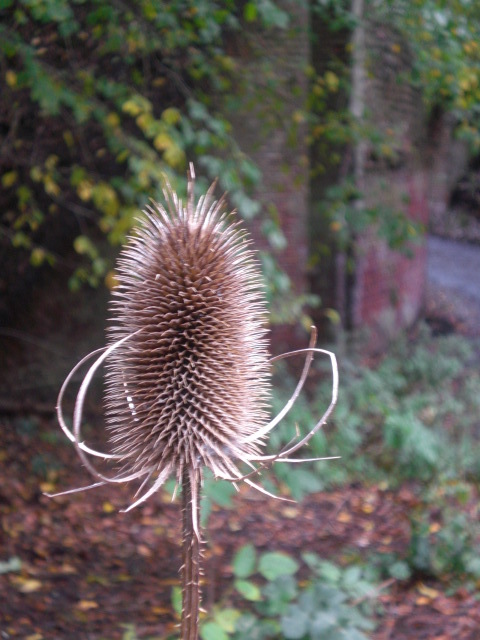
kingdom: Plantae
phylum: Tracheophyta
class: Magnoliopsida
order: Dipsacales
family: Caprifoliaceae
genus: Dipsacus
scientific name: Dipsacus fullonum
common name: Teasel
